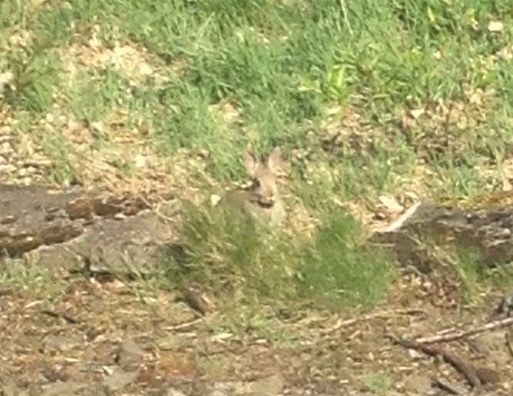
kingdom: Animalia
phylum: Chordata
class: Mammalia
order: Lagomorpha
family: Leporidae
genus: Oryctolagus
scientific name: Oryctolagus cuniculus
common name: European rabbit
